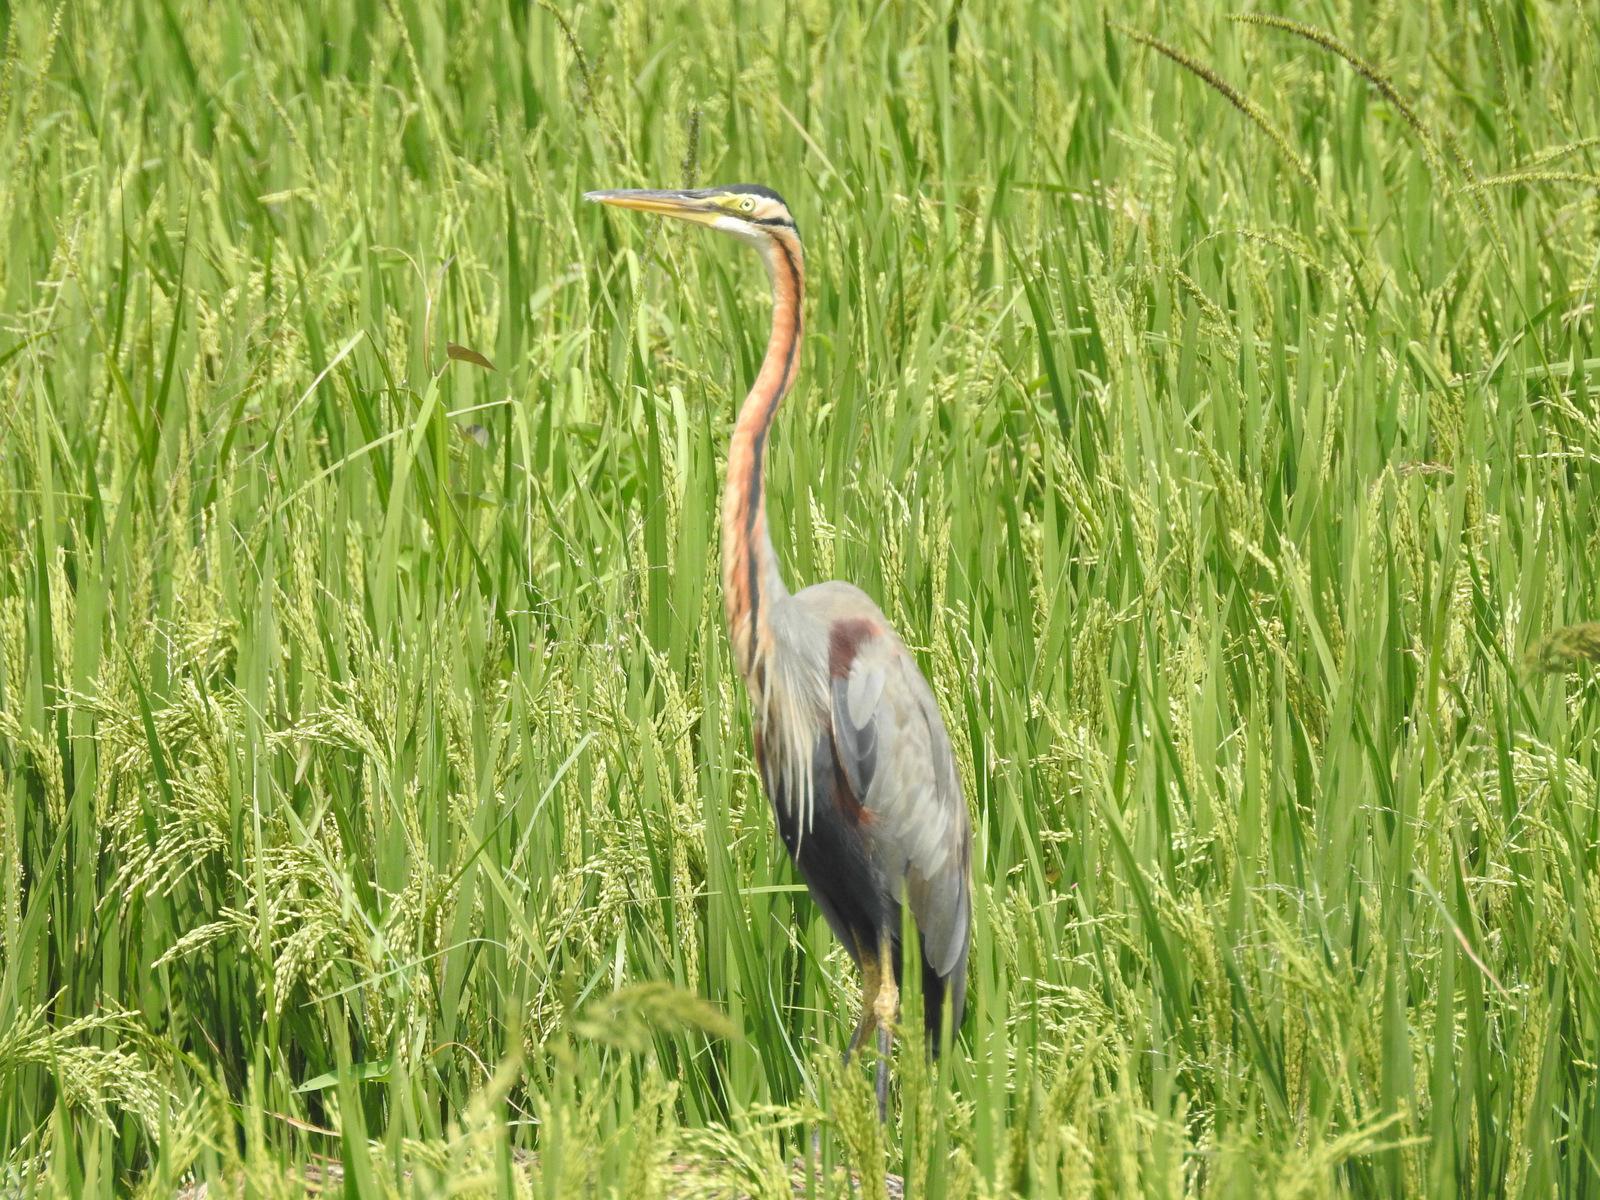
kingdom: Animalia
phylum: Chordata
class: Aves
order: Pelecaniformes
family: Ardeidae
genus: Ardea
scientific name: Ardea purpurea
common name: Purple heron
